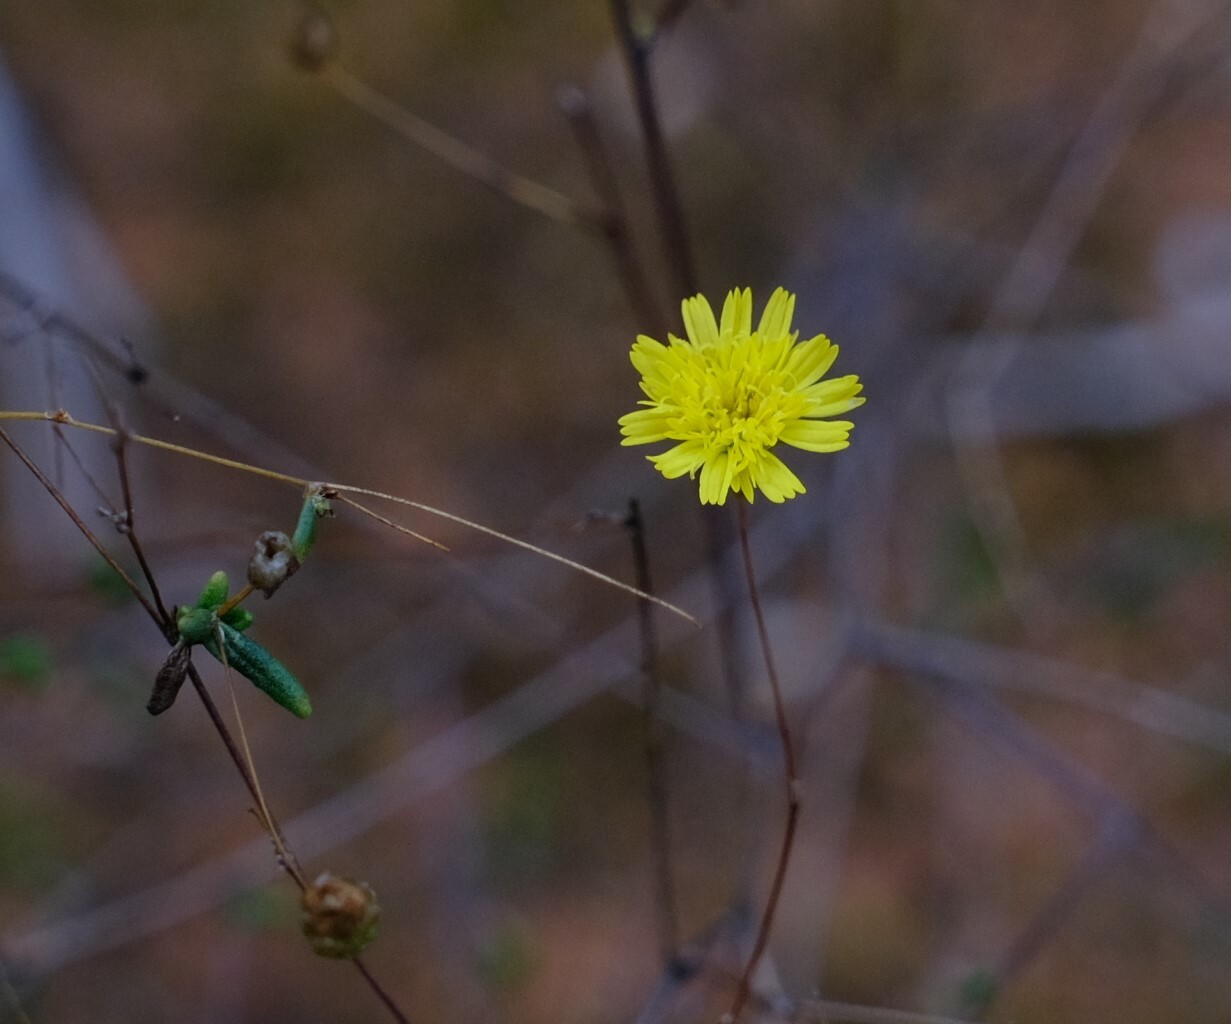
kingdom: Plantae
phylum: Tracheophyta
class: Magnoliopsida
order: Asterales
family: Asteraceae
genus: Siemssenia
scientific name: Siemssenia capillaris
